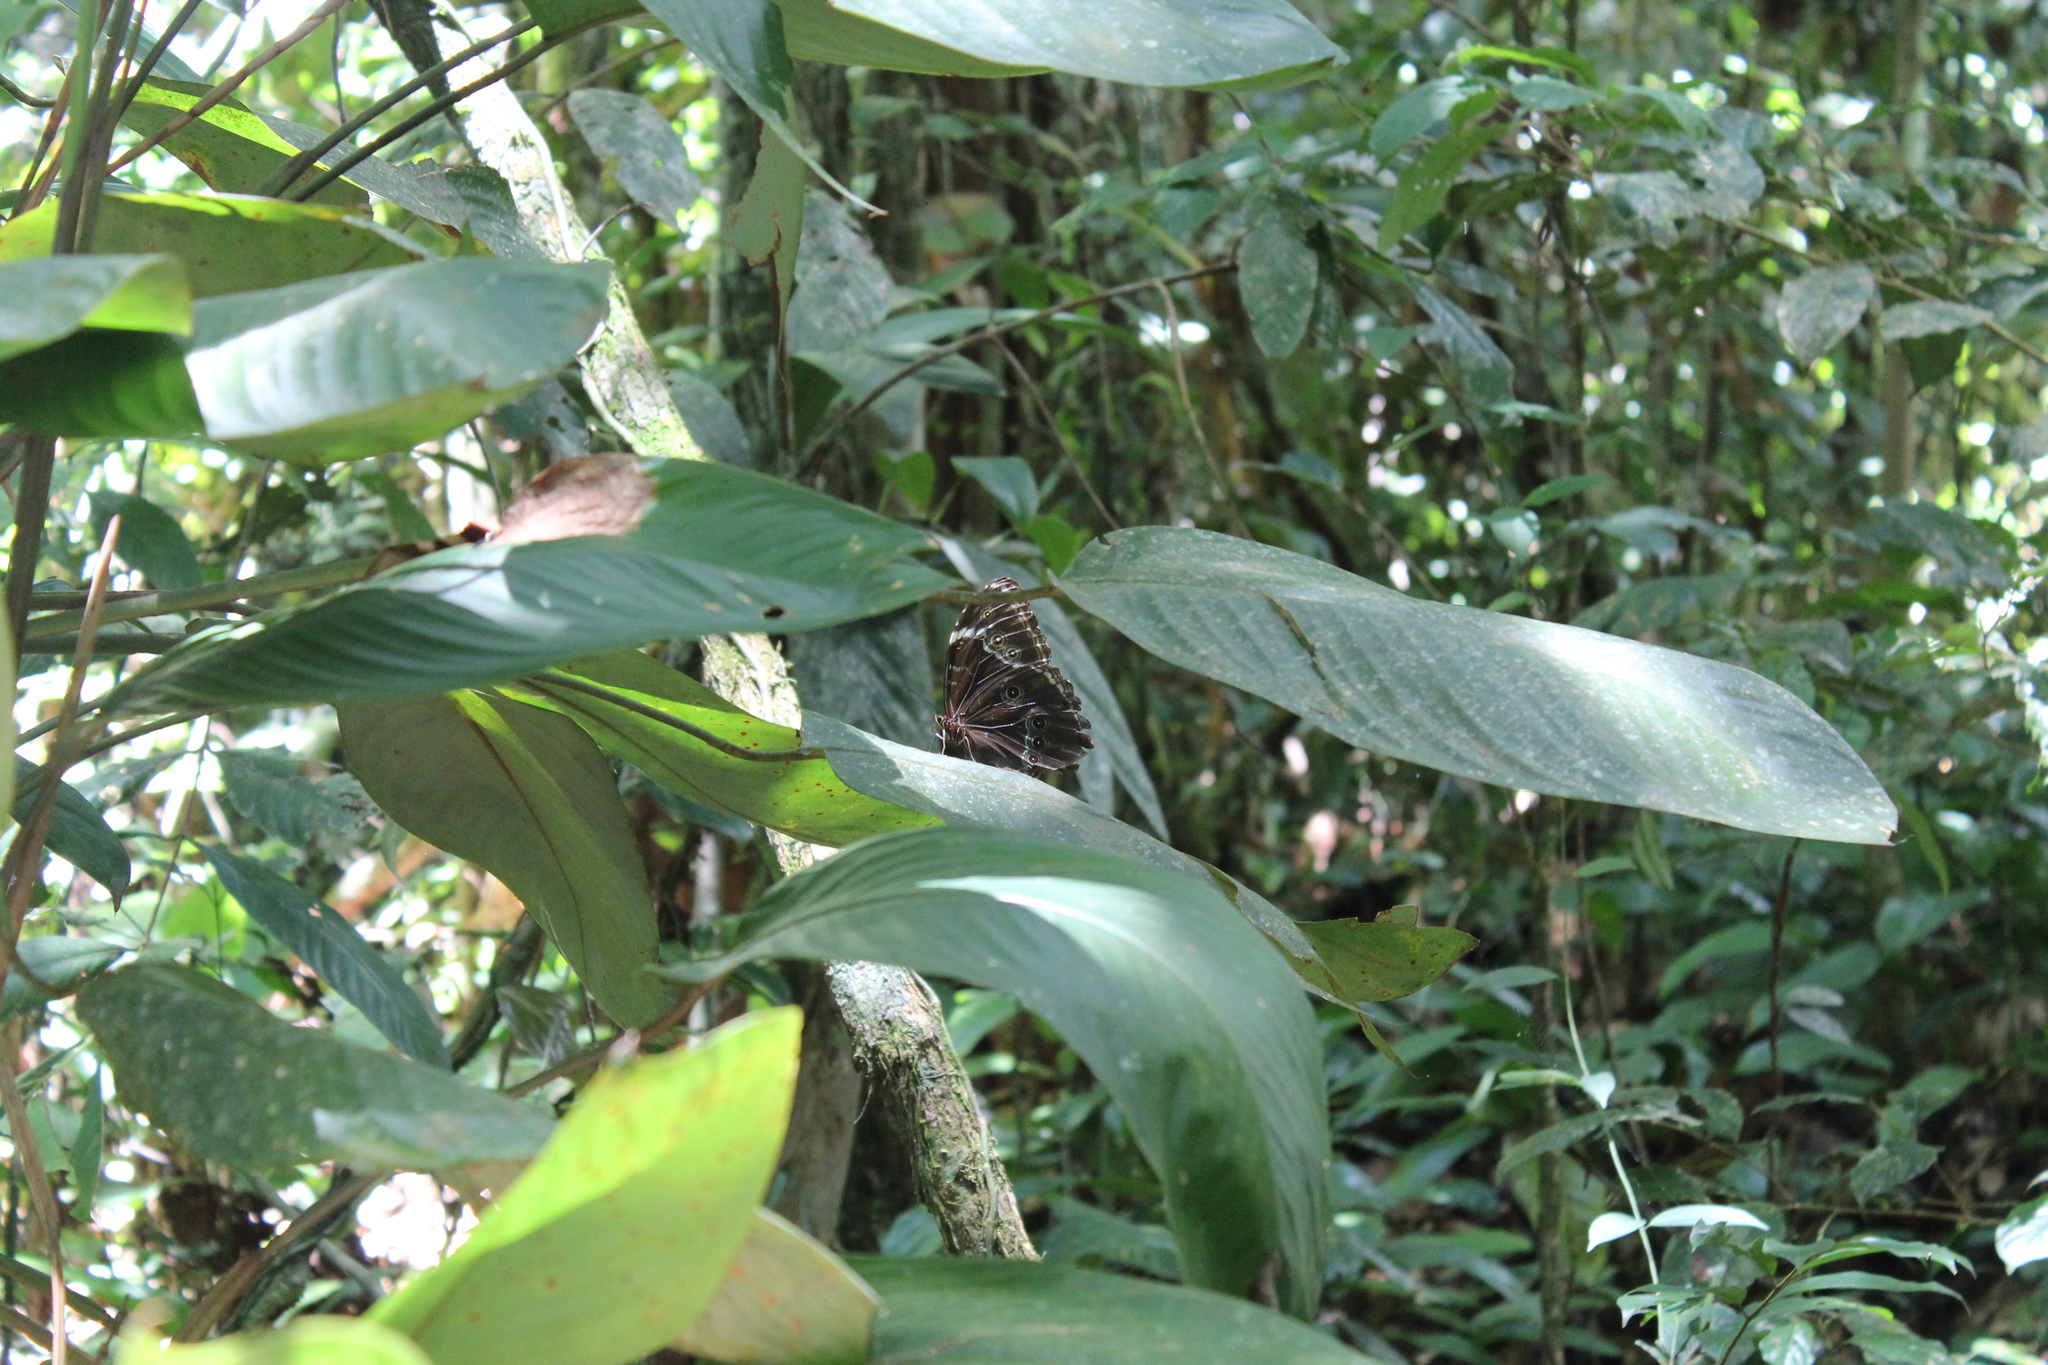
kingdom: Animalia
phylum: Arthropoda
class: Insecta
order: Lepidoptera
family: Nymphalidae
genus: Morpho
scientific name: Morpho helenor
